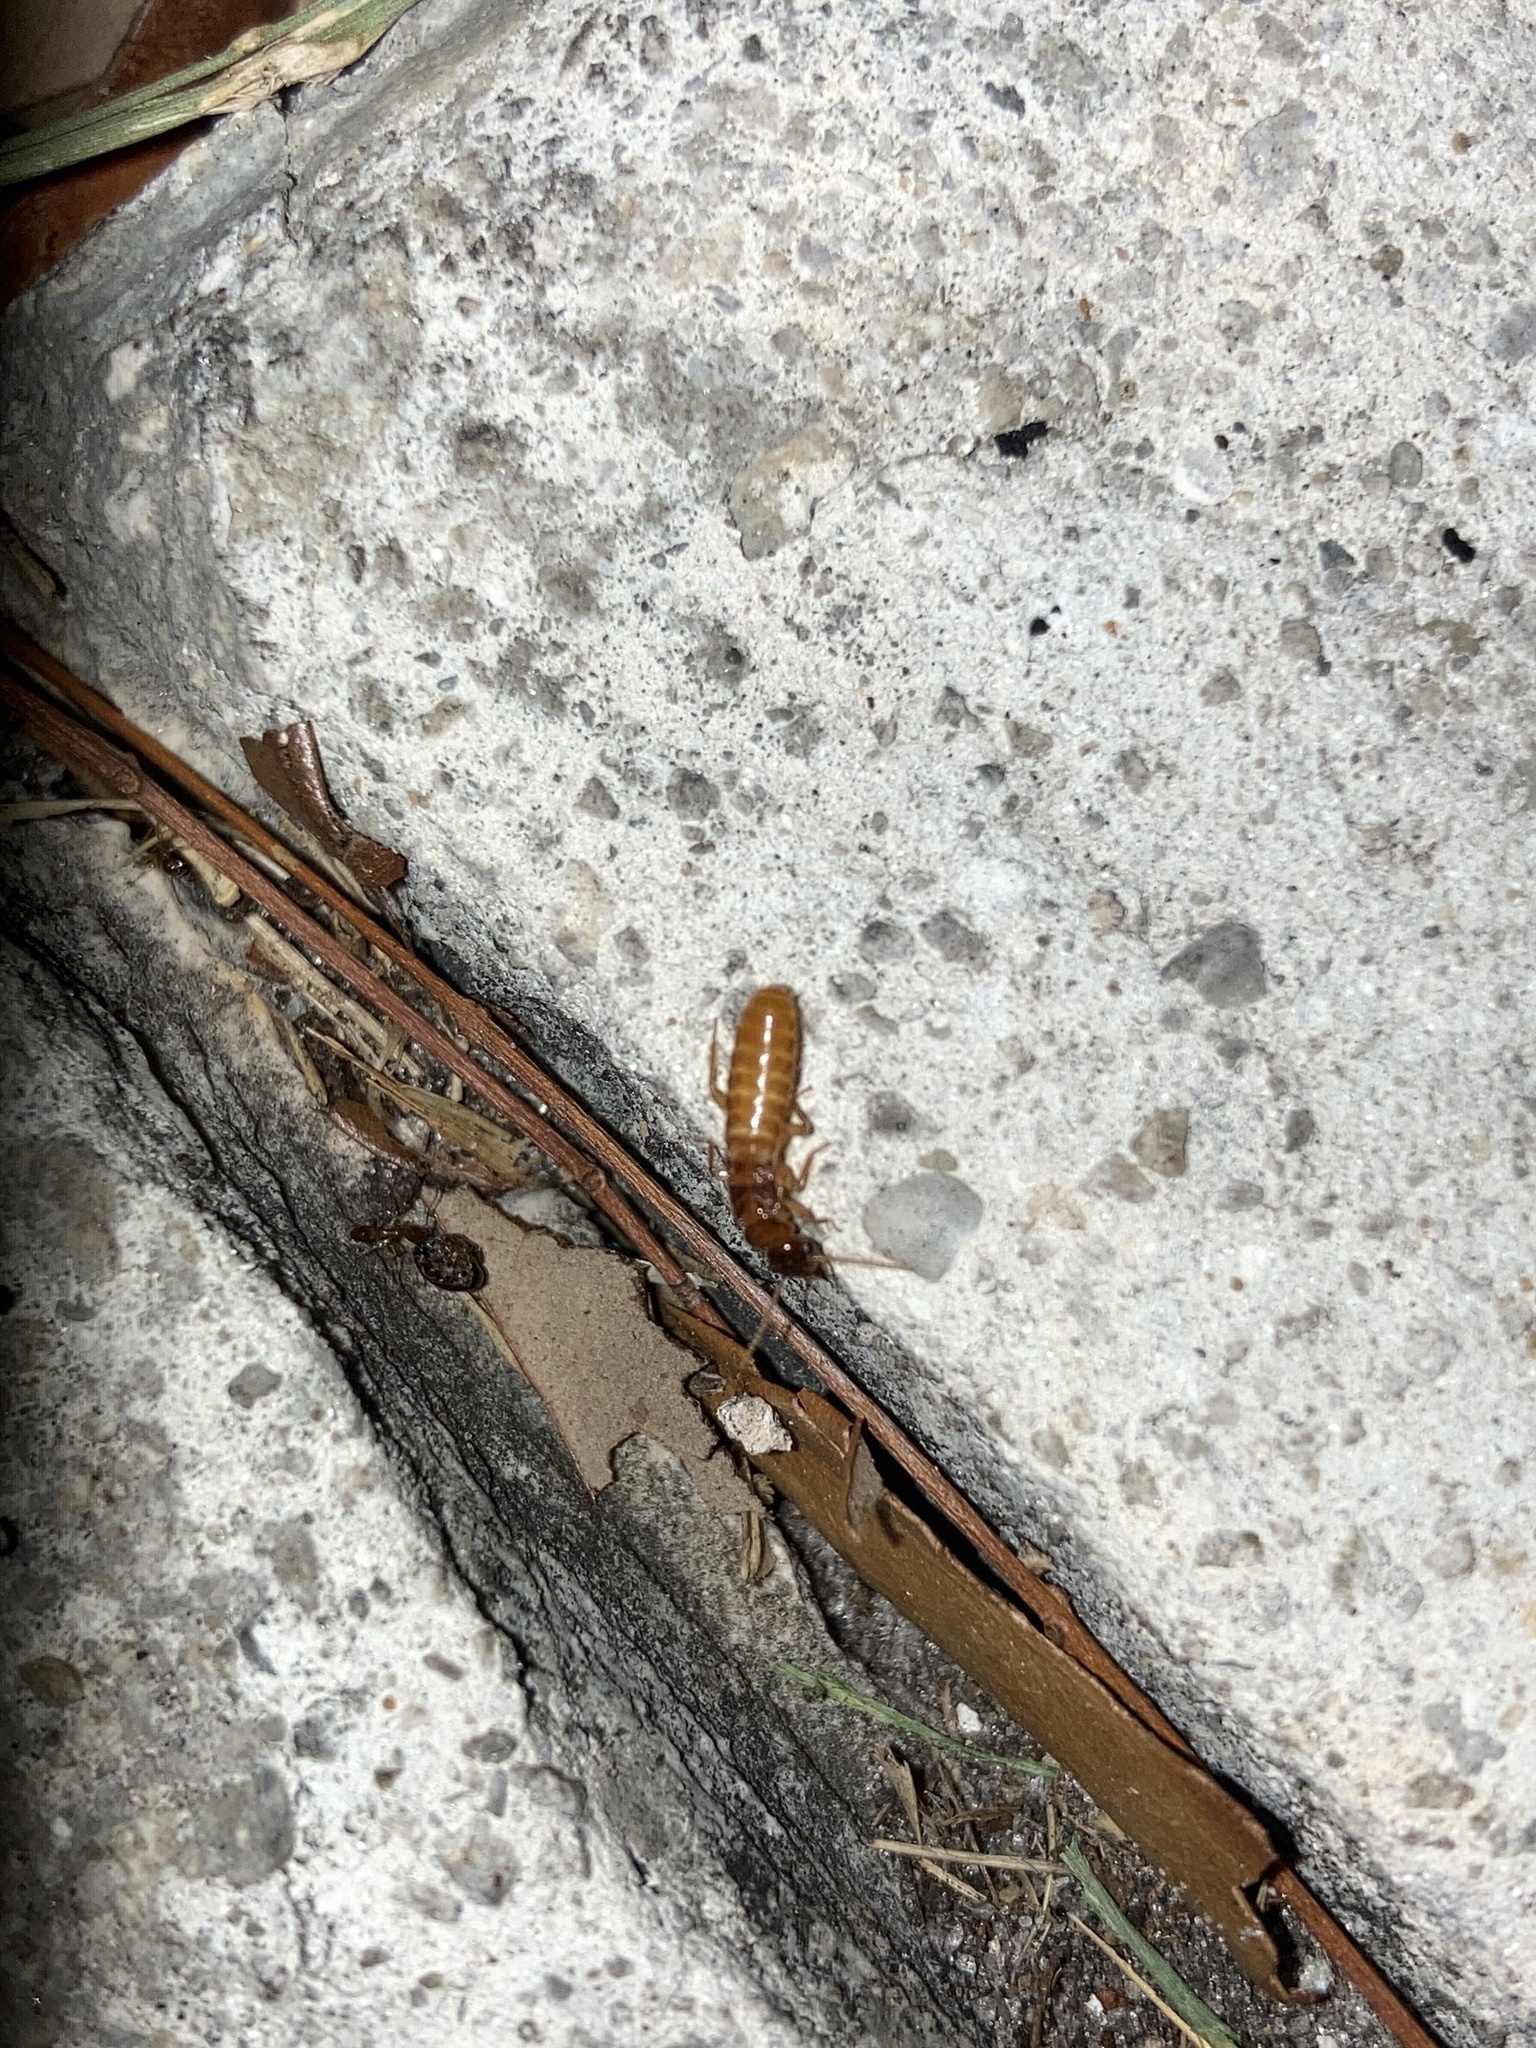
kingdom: Animalia
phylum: Arthropoda
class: Insecta
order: Blattodea
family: Rhinotermitidae
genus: Coptotermes
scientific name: Coptotermes formosanus
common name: Formosan termite
